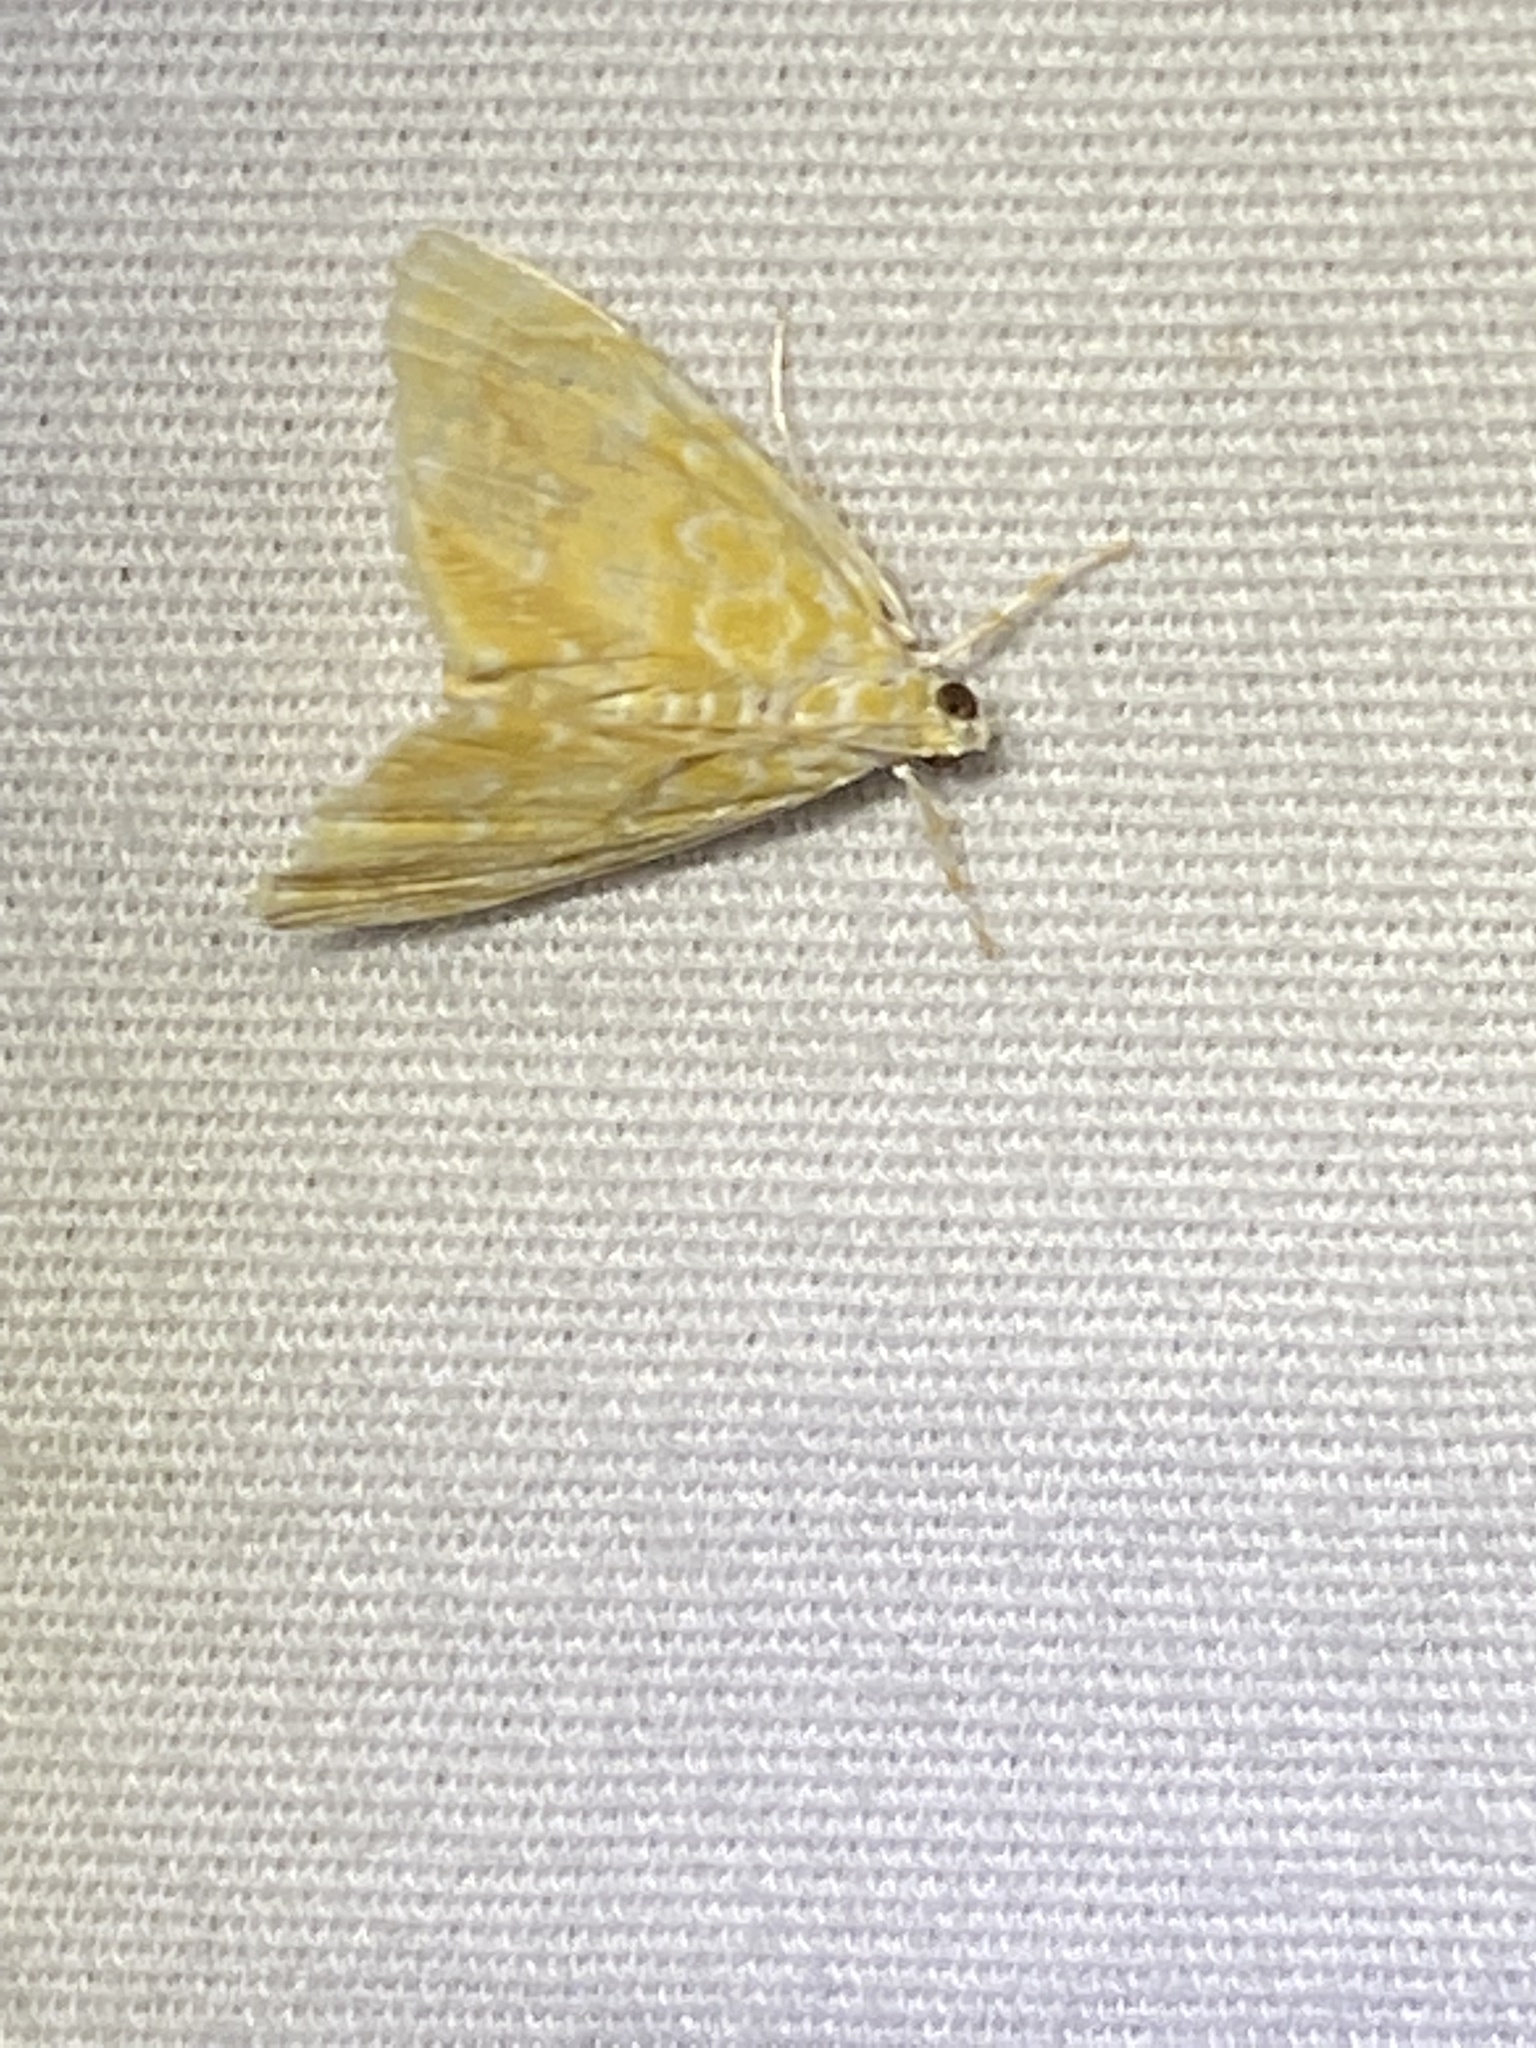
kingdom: Animalia
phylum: Arthropoda
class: Insecta
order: Lepidoptera
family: Crambidae
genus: Glaphyria
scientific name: Glaphyria glaphyralis
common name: Common glaphyria moth
